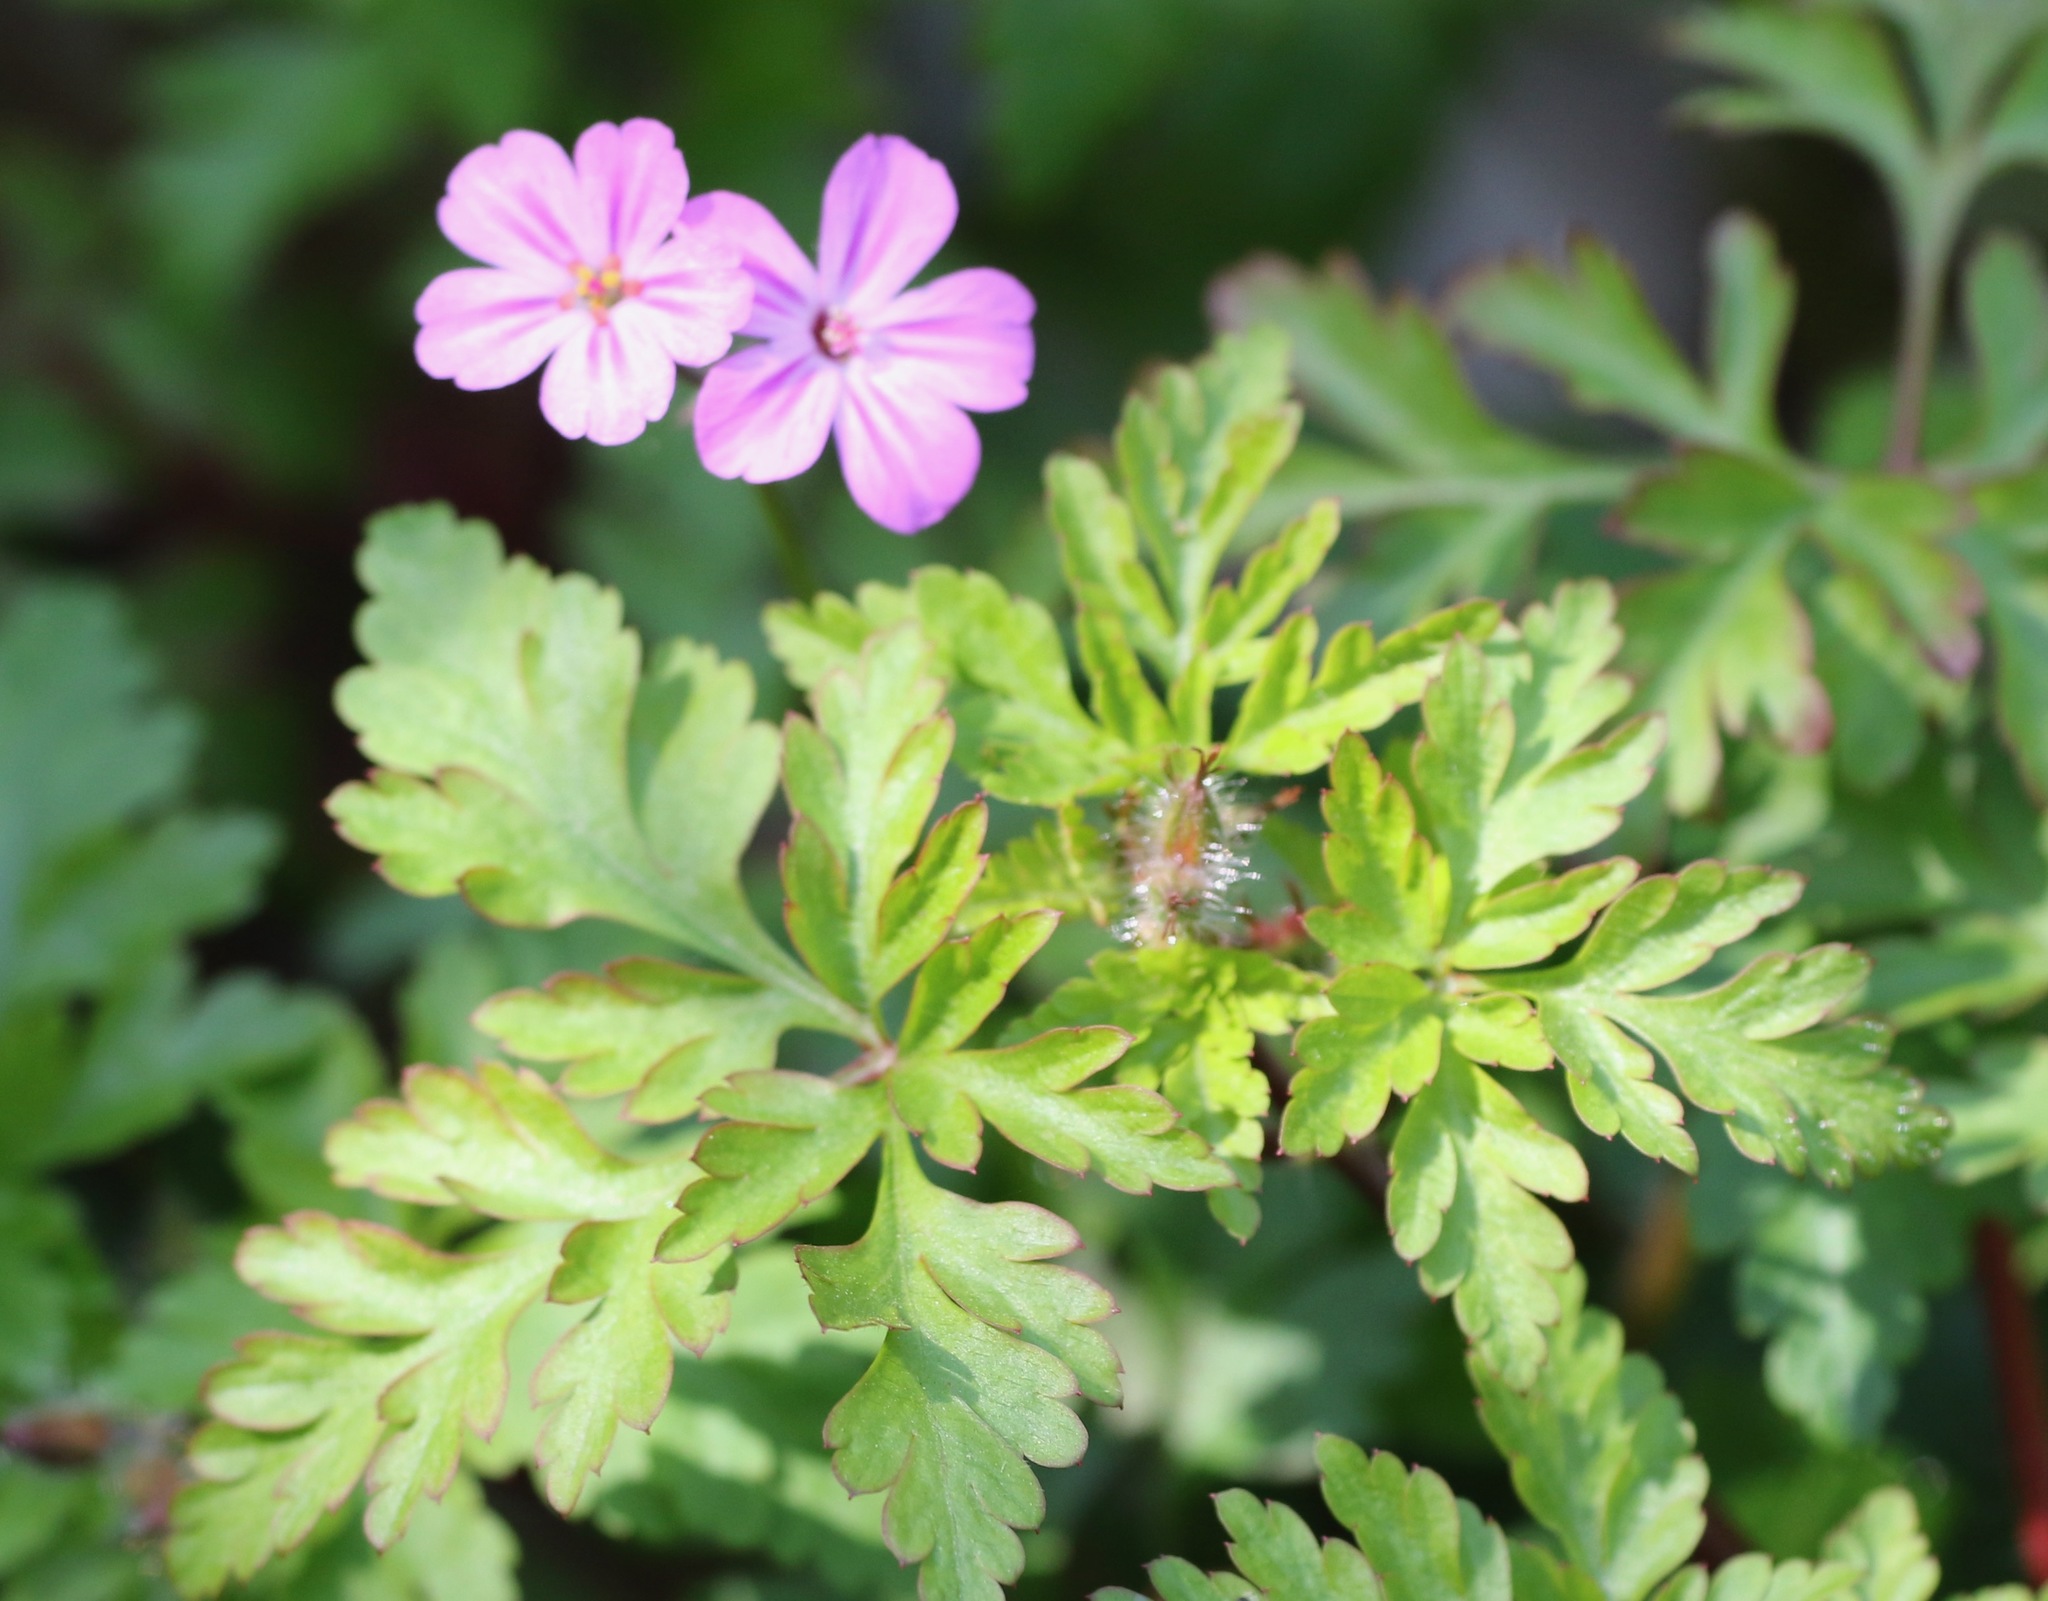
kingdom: Plantae
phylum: Tracheophyta
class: Magnoliopsida
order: Geraniales
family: Geraniaceae
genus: Geranium
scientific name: Geranium robertianum
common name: Herb-robert
